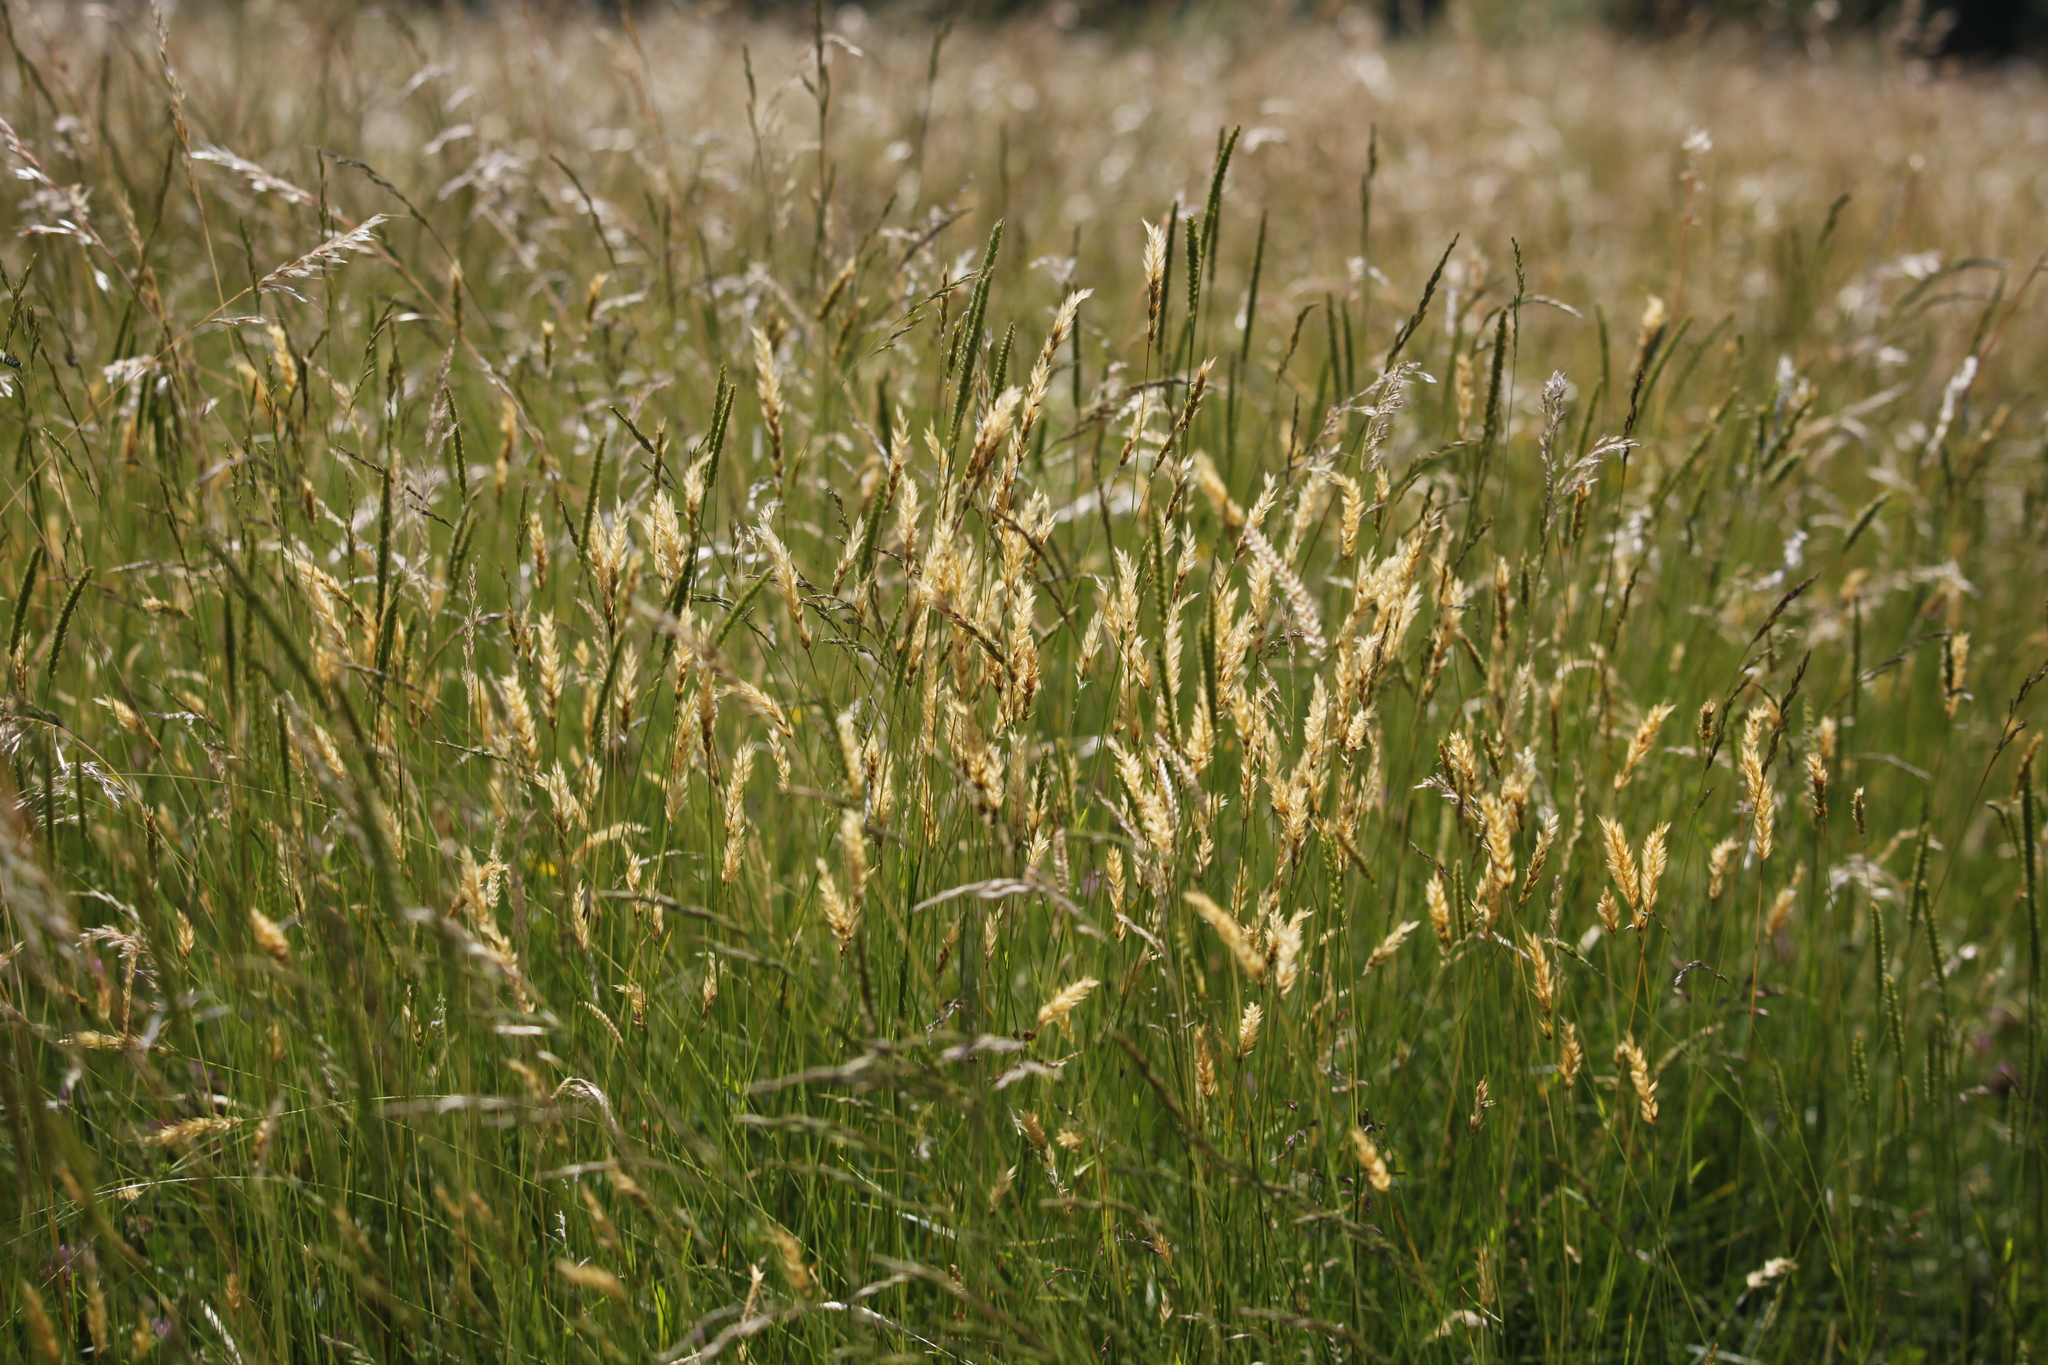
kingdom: Plantae
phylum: Tracheophyta
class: Liliopsida
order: Poales
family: Poaceae
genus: Anthoxanthum
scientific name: Anthoxanthum odoratum
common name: Sweet vernalgrass
